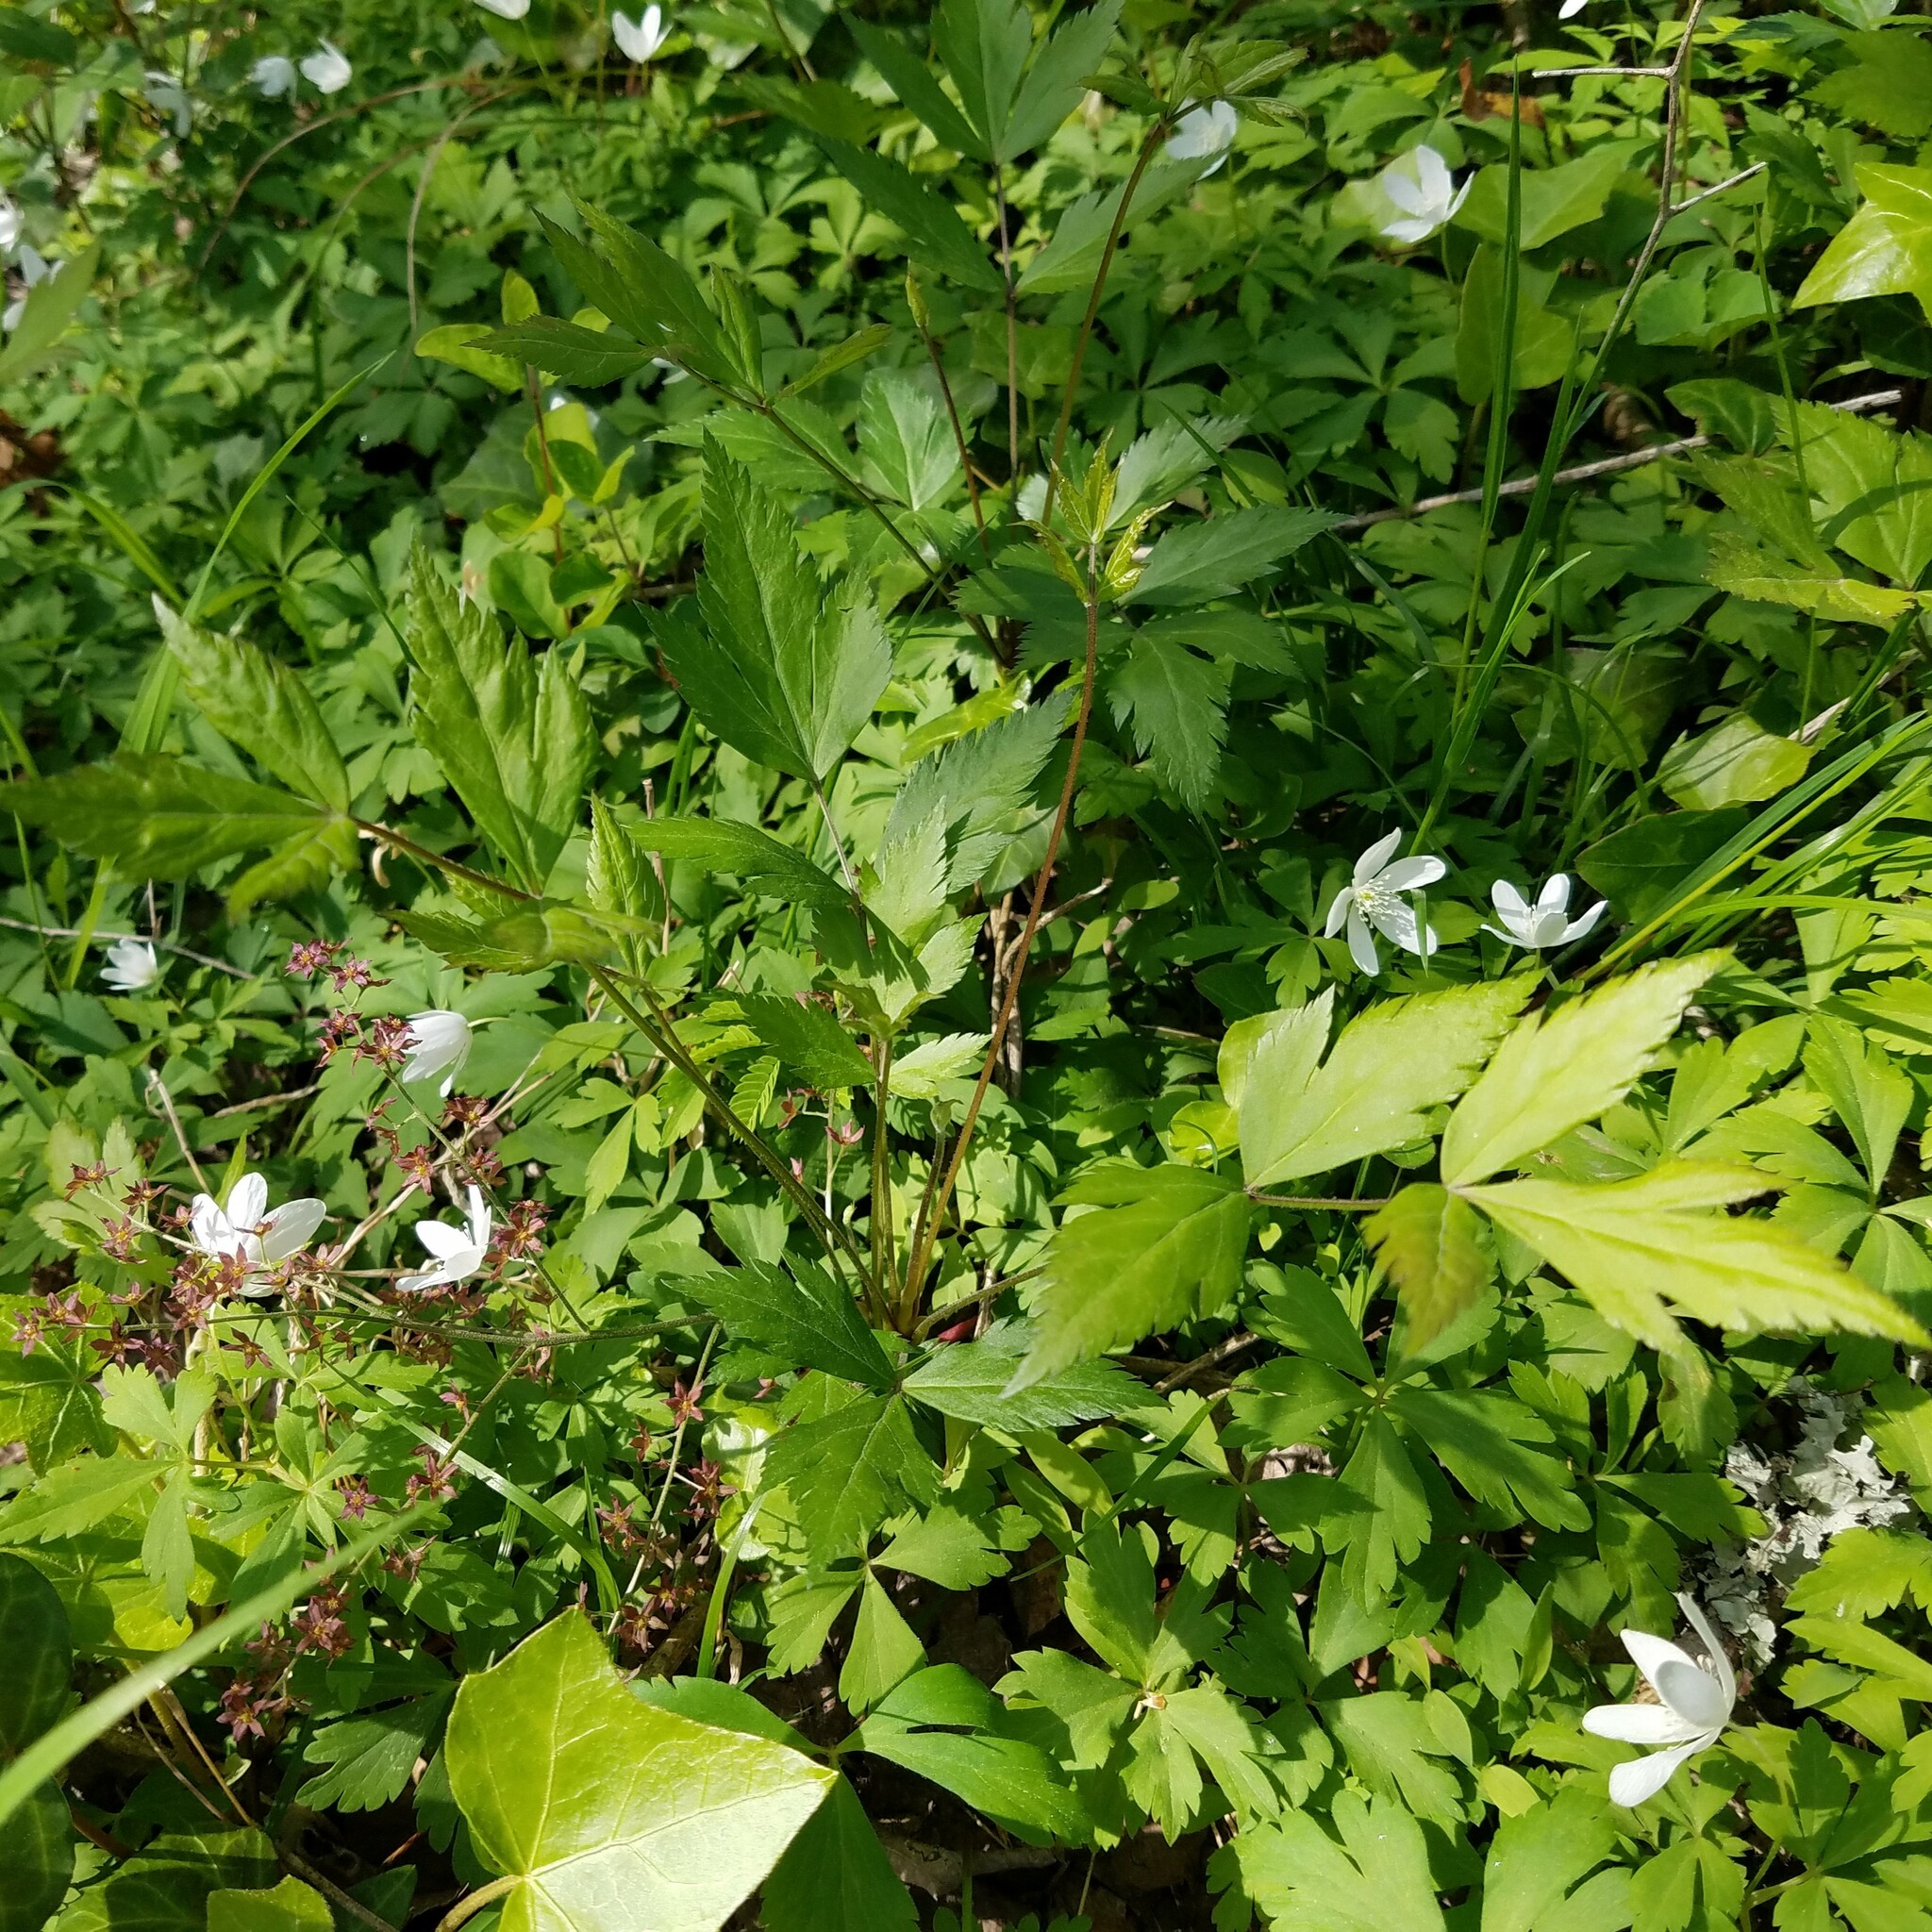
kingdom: Plantae
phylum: Tracheophyta
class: Magnoliopsida
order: Ranunculales
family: Ranunculaceae
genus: Xanthorhiza
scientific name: Xanthorhiza simplicissima
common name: Yellowroot
